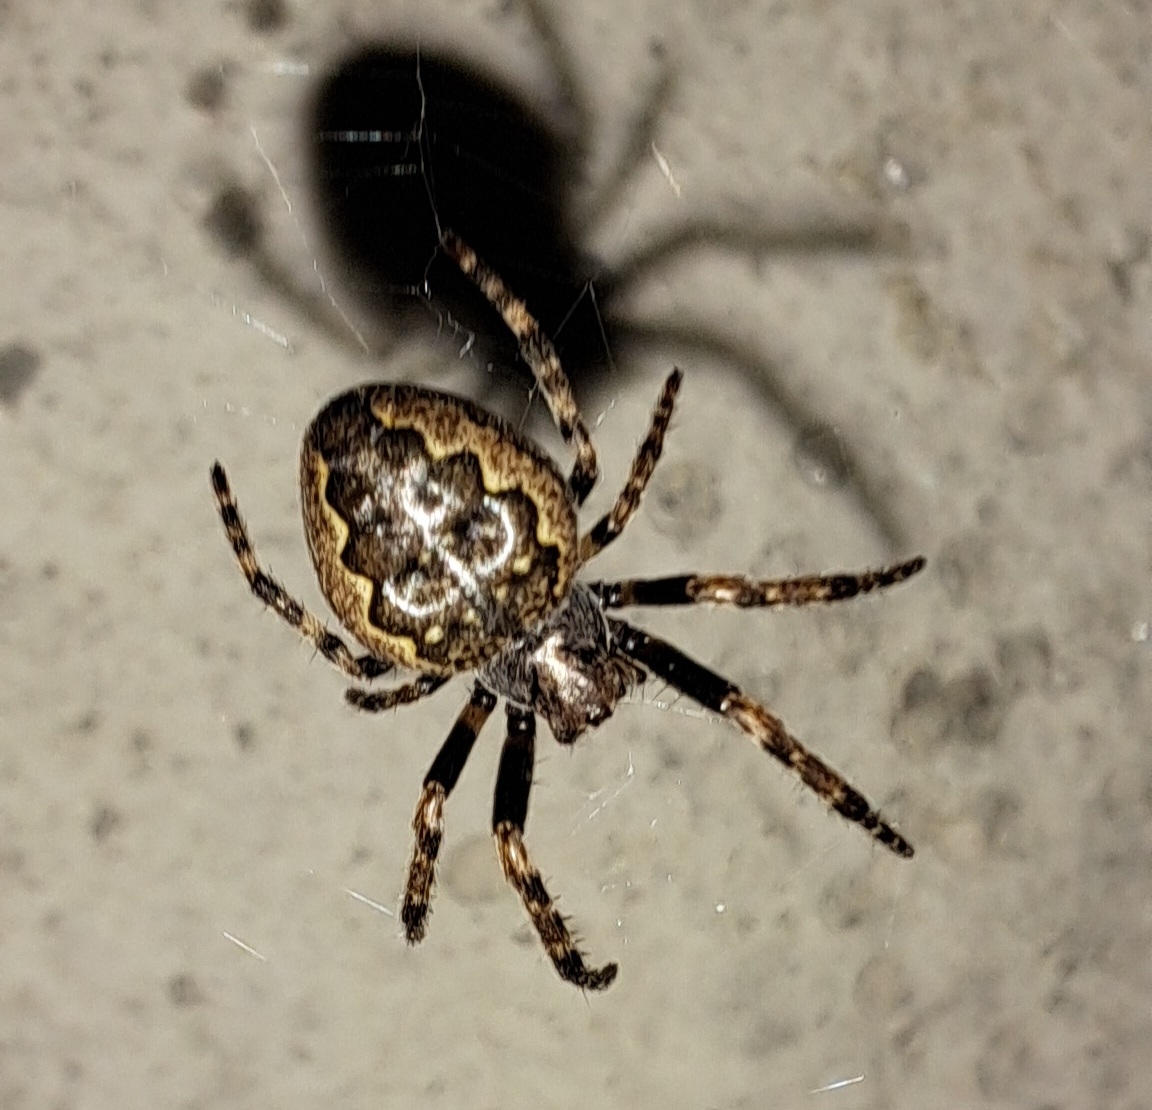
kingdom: Animalia
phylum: Arthropoda
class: Arachnida
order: Araneae
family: Araneidae
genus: Nuctenea
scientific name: Nuctenea umbratica
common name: Toad spider
